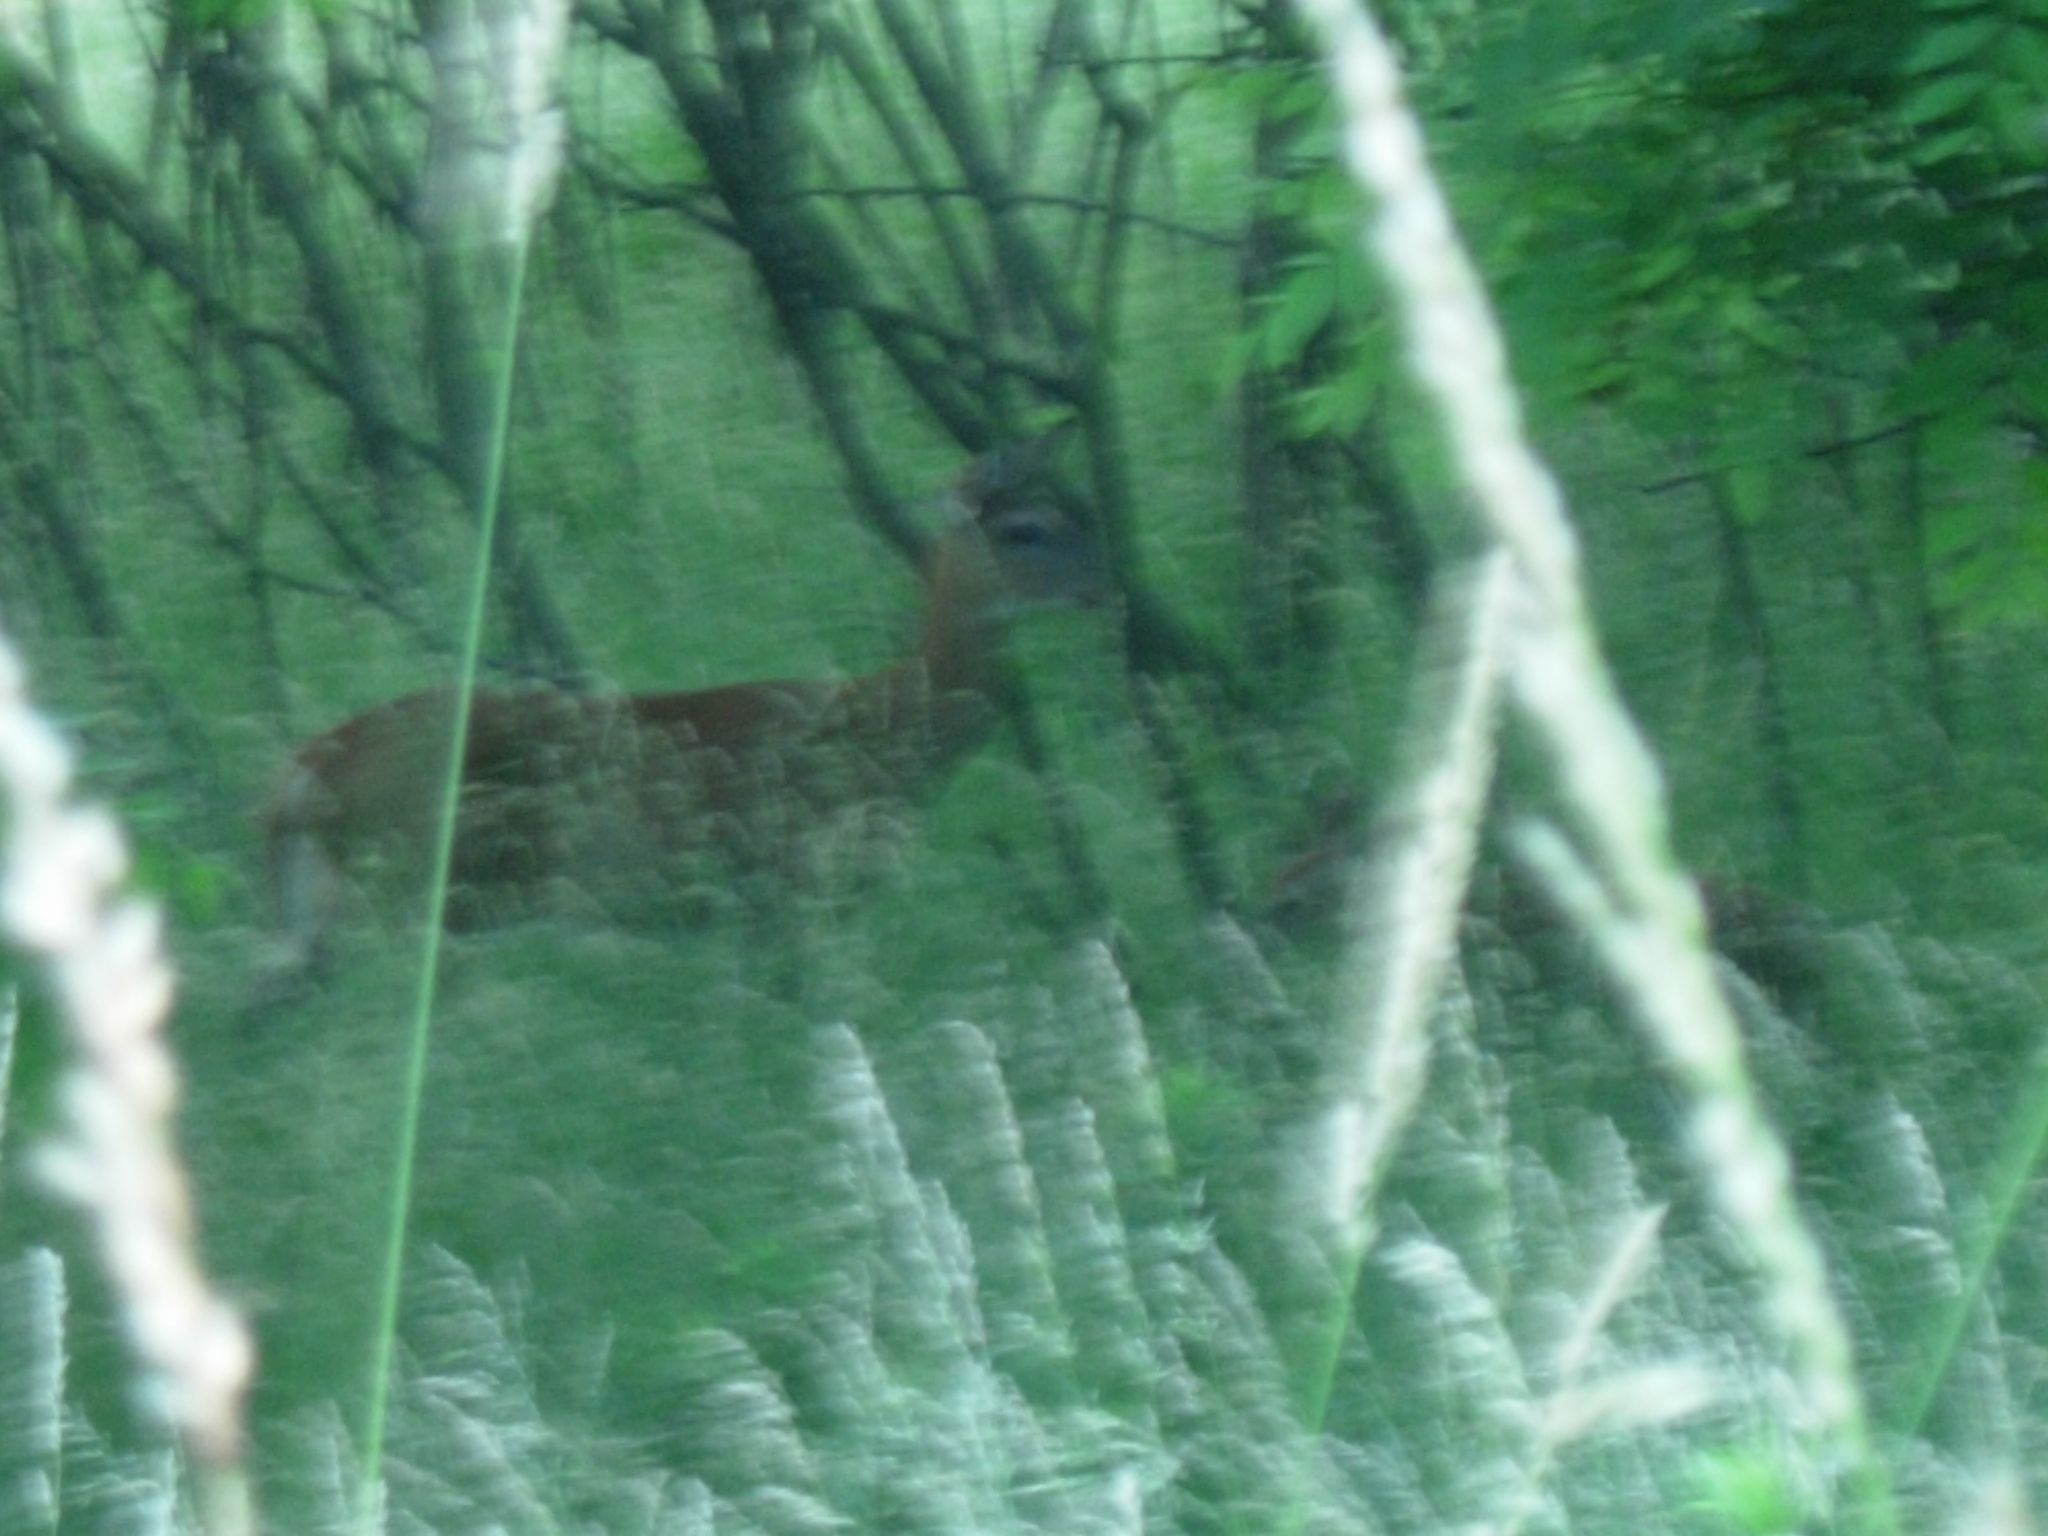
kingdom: Animalia
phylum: Chordata
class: Mammalia
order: Artiodactyla
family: Cervidae
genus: Odocoileus
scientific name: Odocoileus virginianus
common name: White-tailed deer
